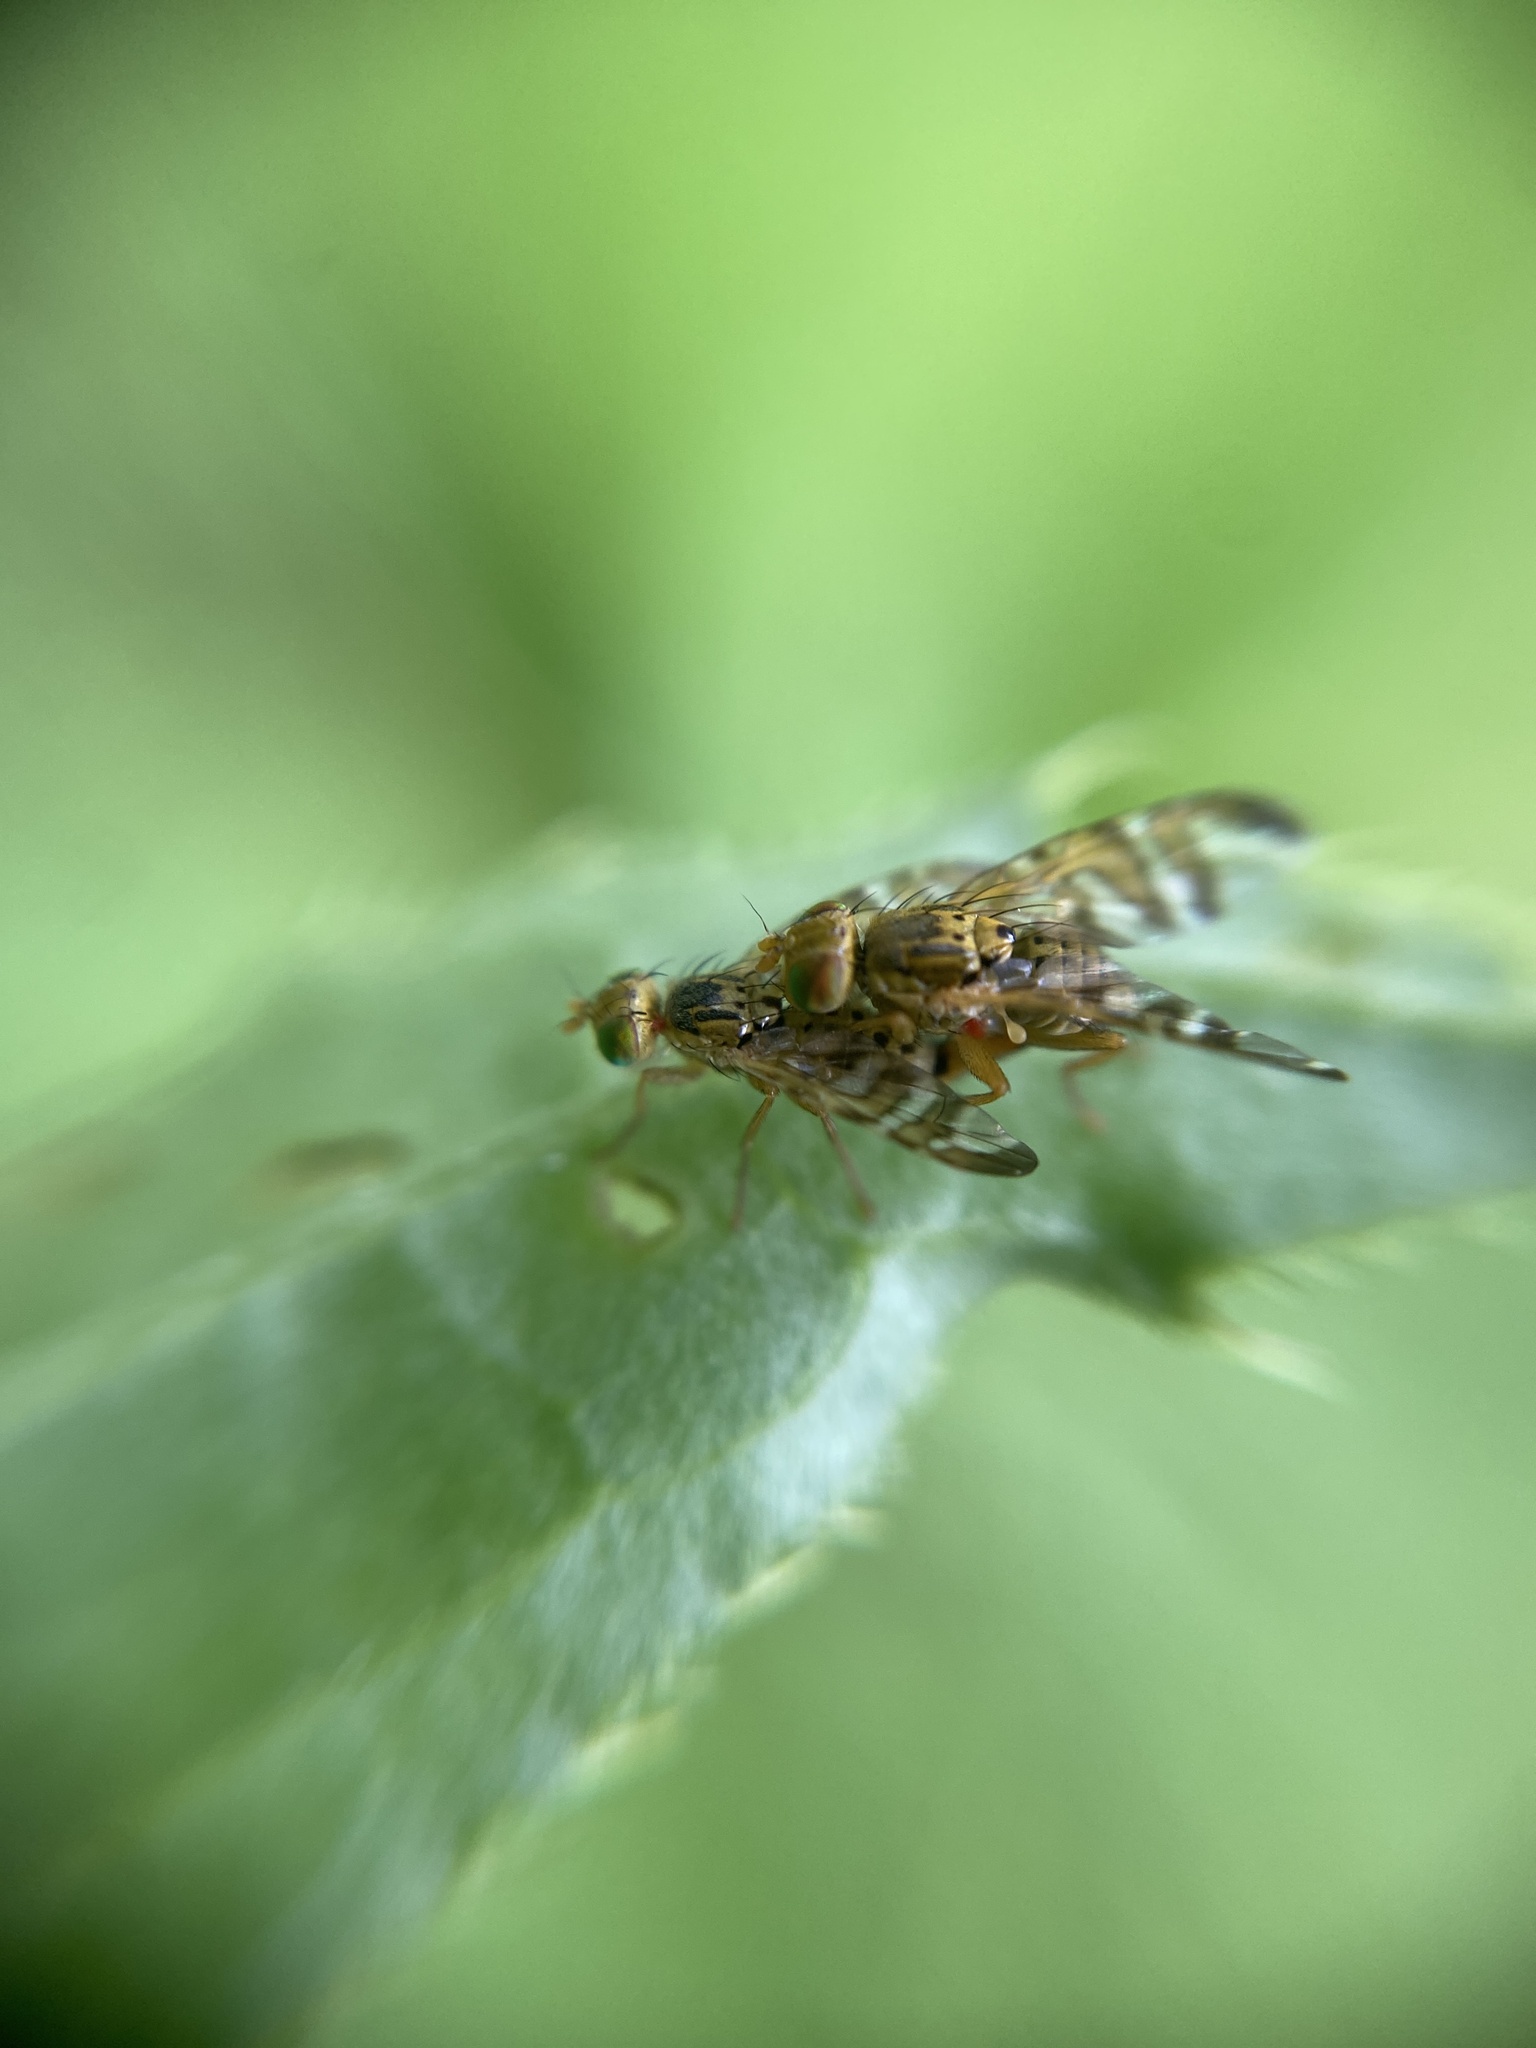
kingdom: Animalia
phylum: Arthropoda
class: Insecta
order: Diptera
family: Tephritidae
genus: Chaetostomella
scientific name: Chaetostomella cylindrica
